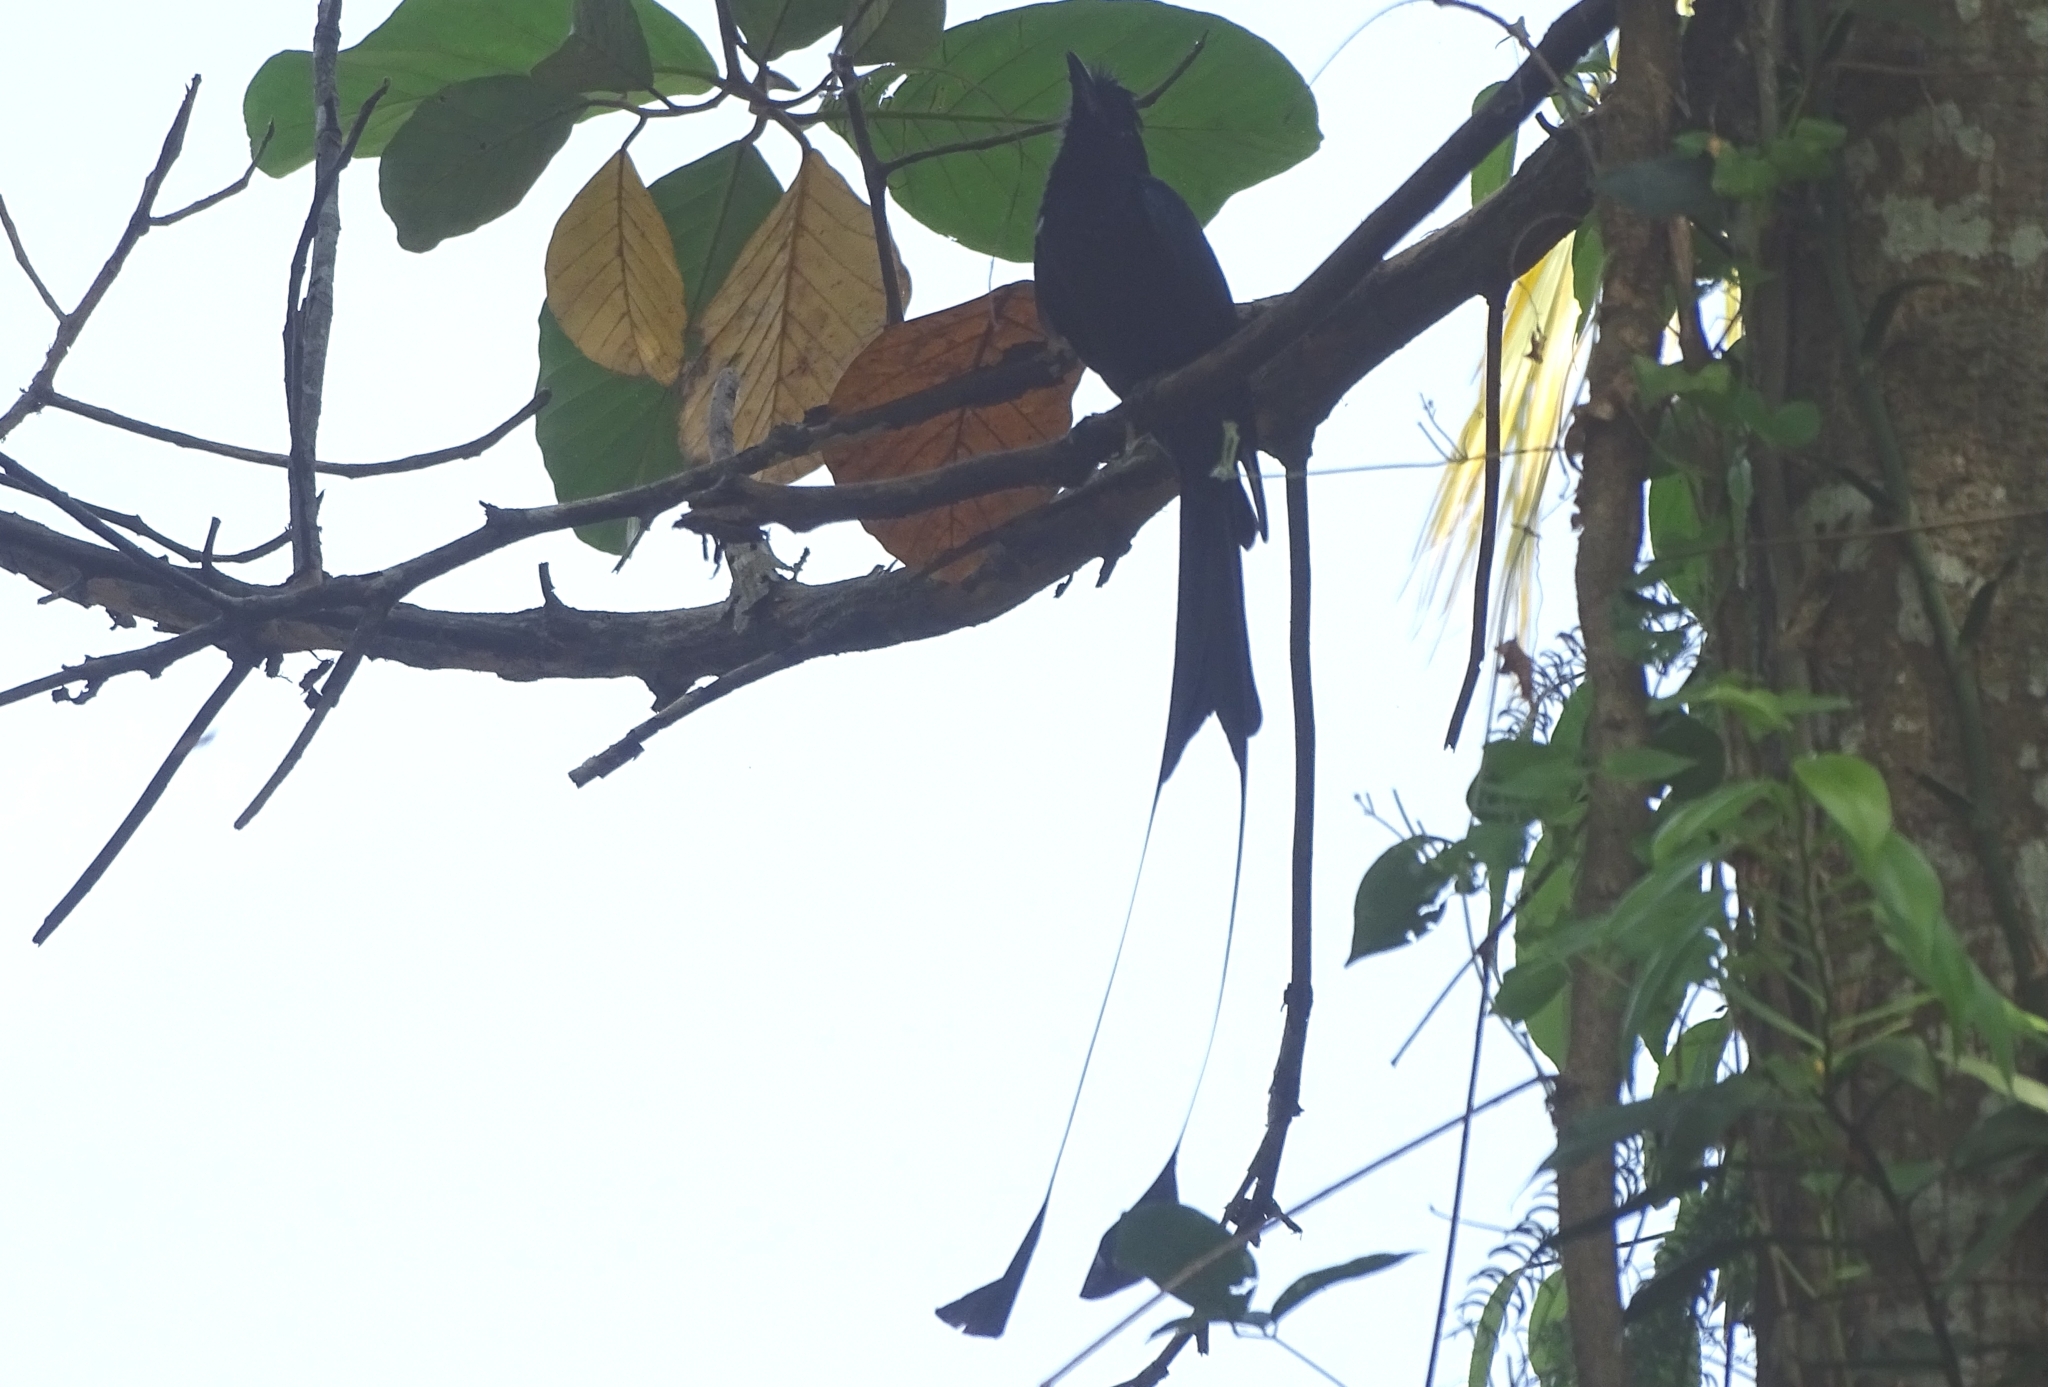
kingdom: Animalia
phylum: Chordata
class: Aves
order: Passeriformes
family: Dicruridae
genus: Dicrurus
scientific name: Dicrurus paradiseus
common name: Greater racket-tailed drongo
